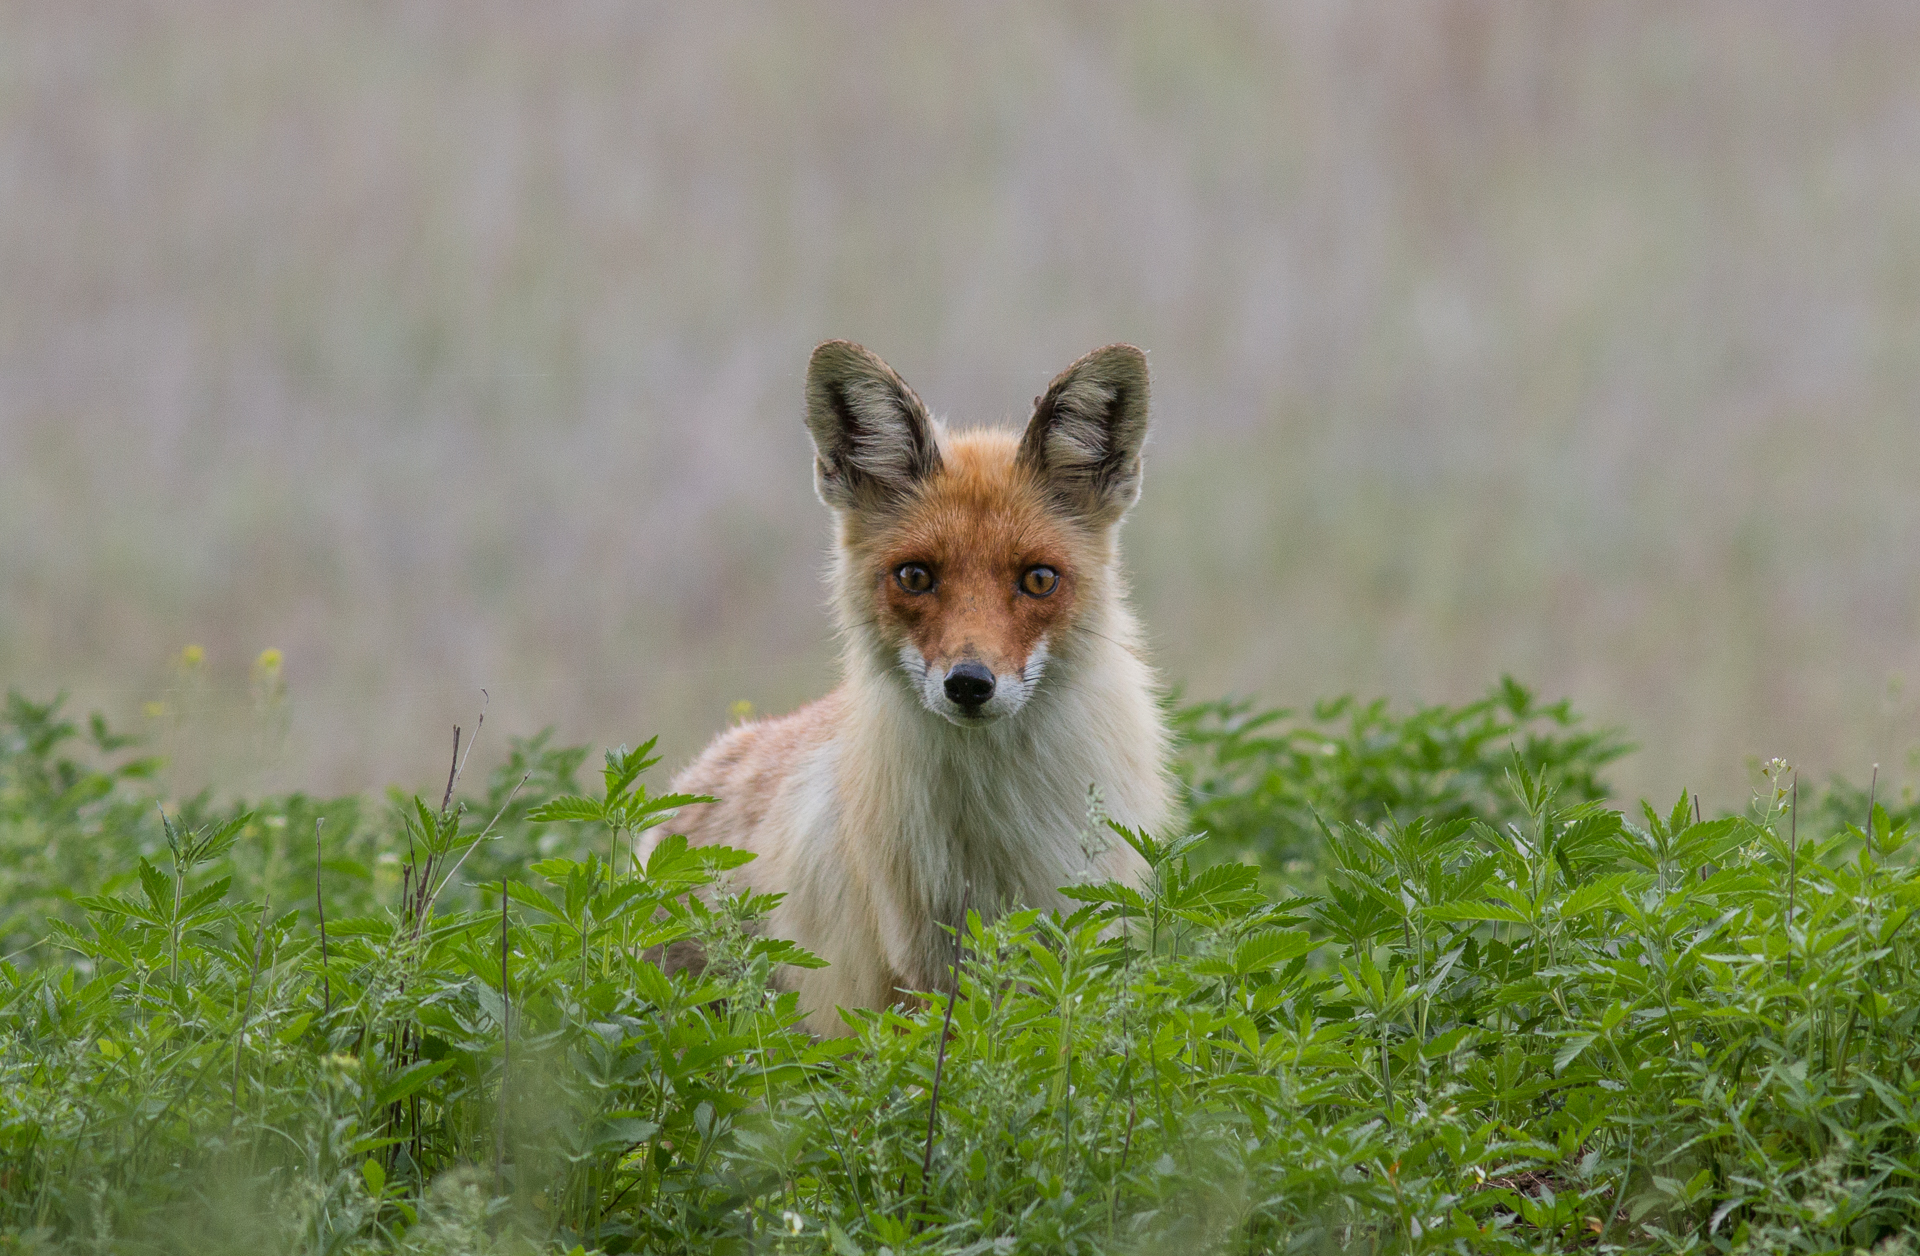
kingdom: Animalia
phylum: Chordata
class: Mammalia
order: Carnivora
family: Canidae
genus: Vulpes
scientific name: Vulpes vulpes
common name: Red fox
